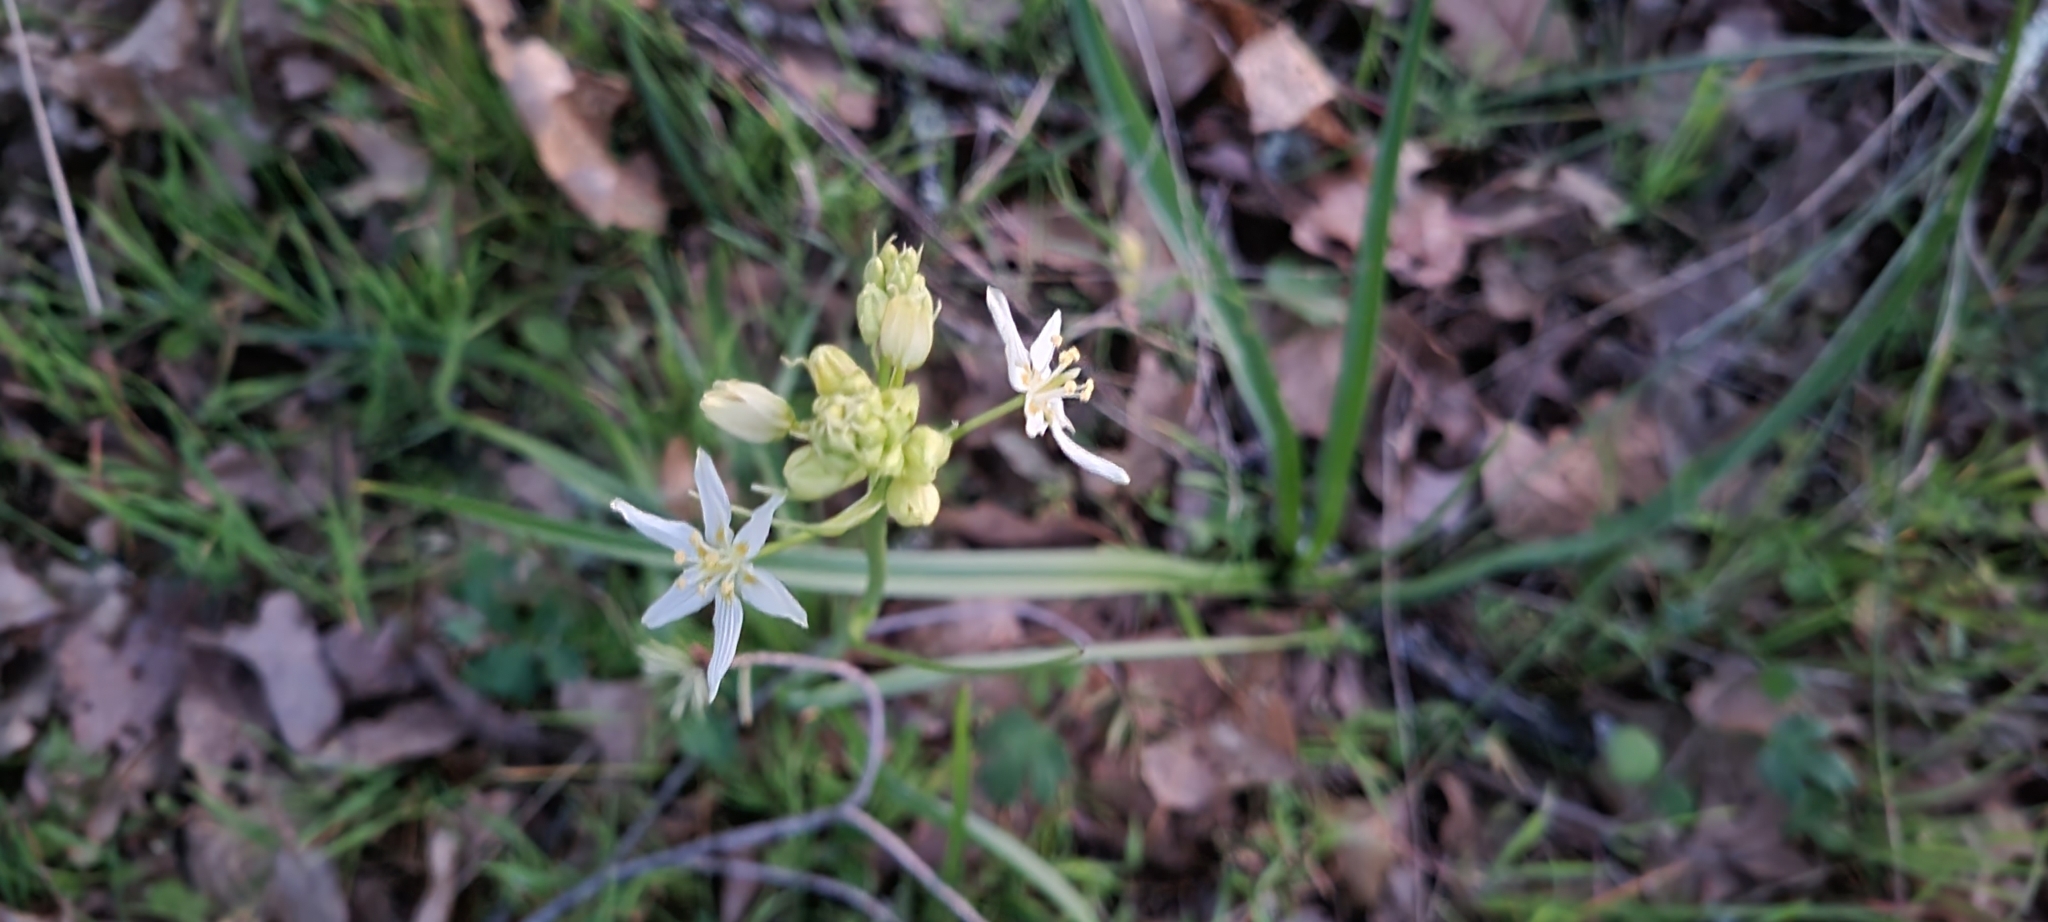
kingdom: Plantae
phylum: Tracheophyta
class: Liliopsida
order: Liliales
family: Melanthiaceae
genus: Toxicoscordion
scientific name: Toxicoscordion fremontii
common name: Fremont's death camas
